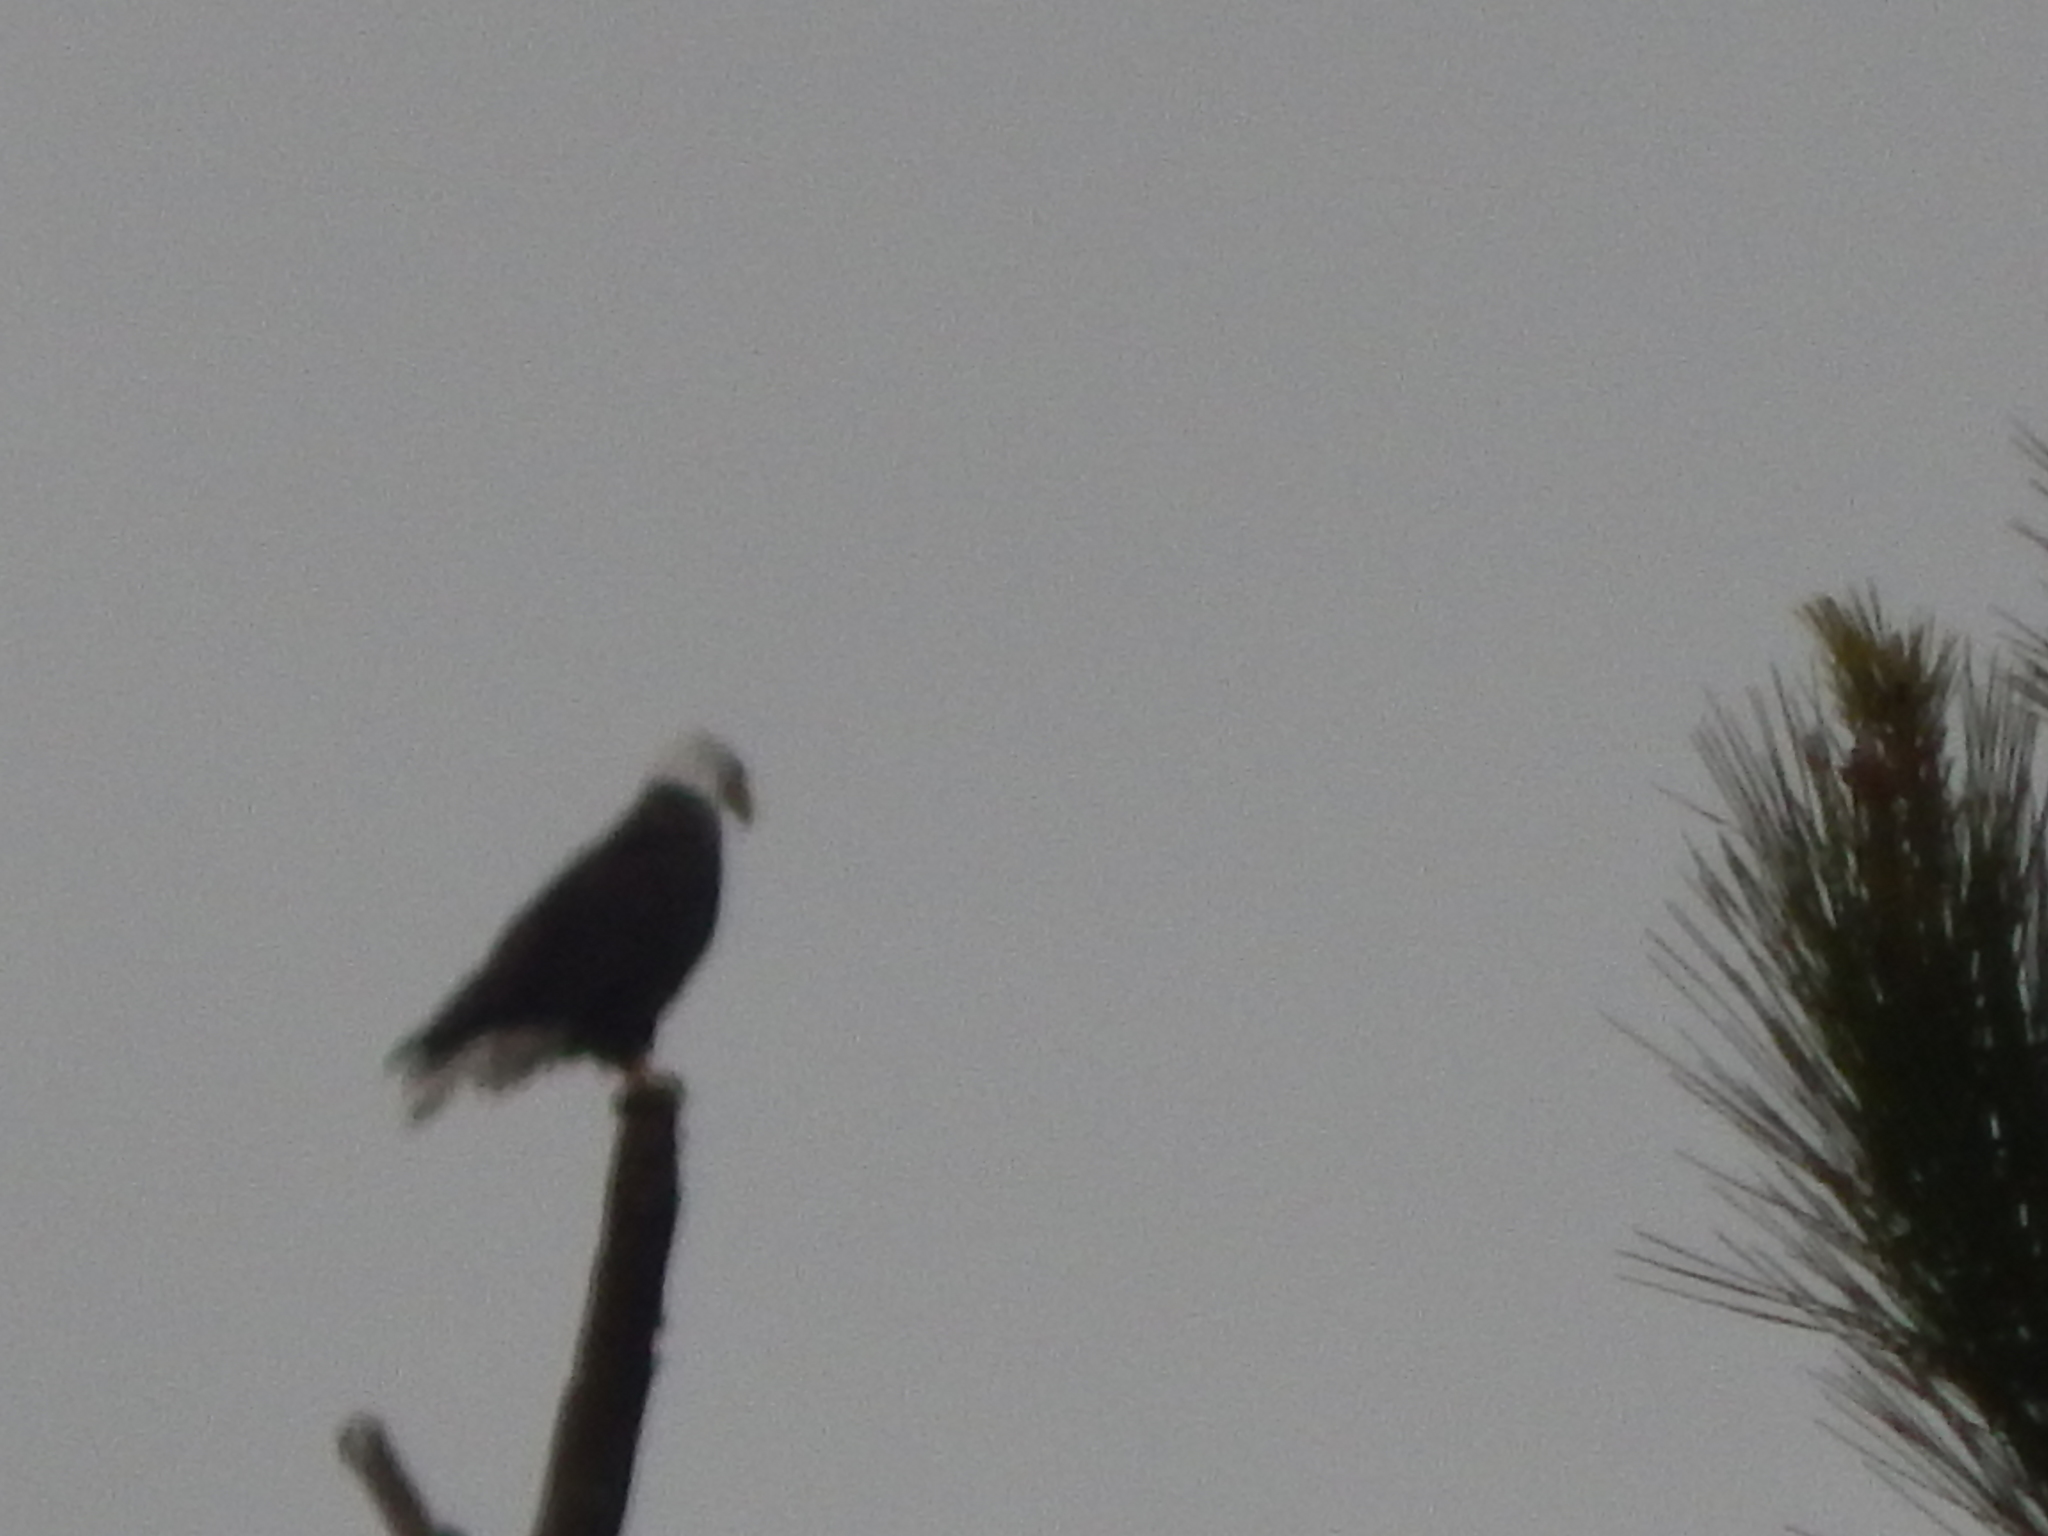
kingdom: Animalia
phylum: Chordata
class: Aves
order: Accipitriformes
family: Accipitridae
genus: Haliaeetus
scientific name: Haliaeetus leucocephalus
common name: Bald eagle
